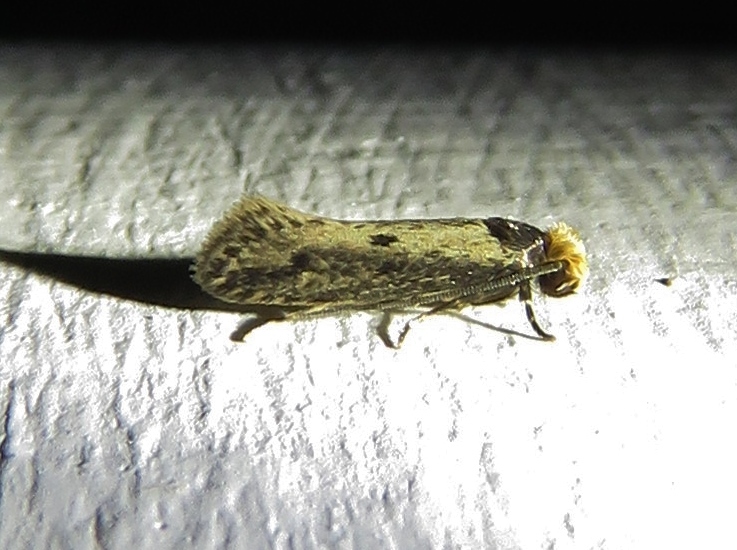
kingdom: Animalia
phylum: Arthropoda
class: Insecta
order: Lepidoptera
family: Tineidae
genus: Tinea
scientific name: Tinea apicimaculella
